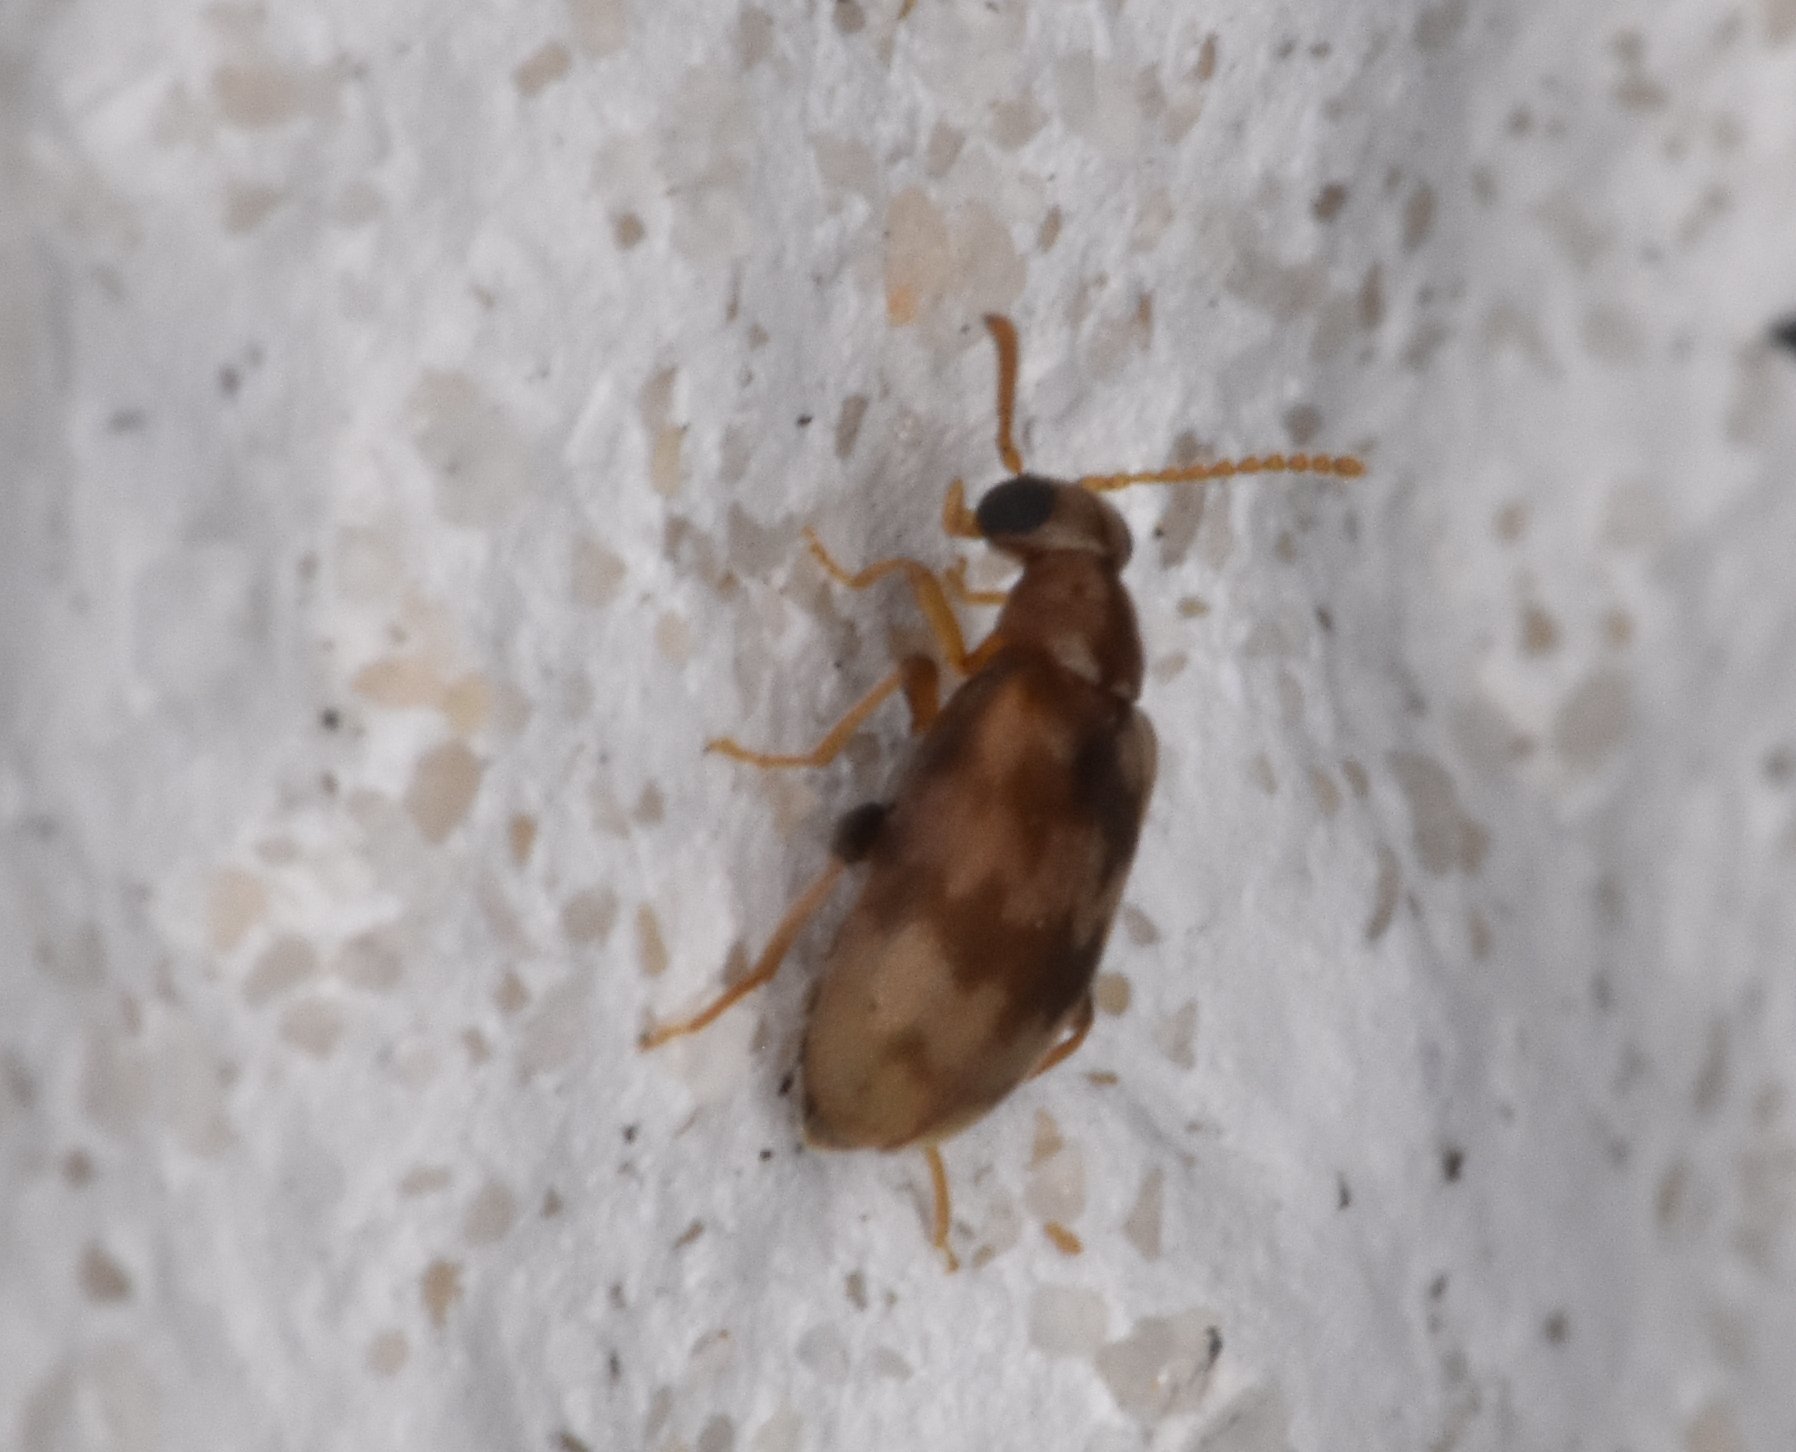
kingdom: Animalia
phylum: Arthropoda
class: Insecta
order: Coleoptera
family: Aderidae
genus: Emelinus
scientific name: Emelinus melsheimeri
